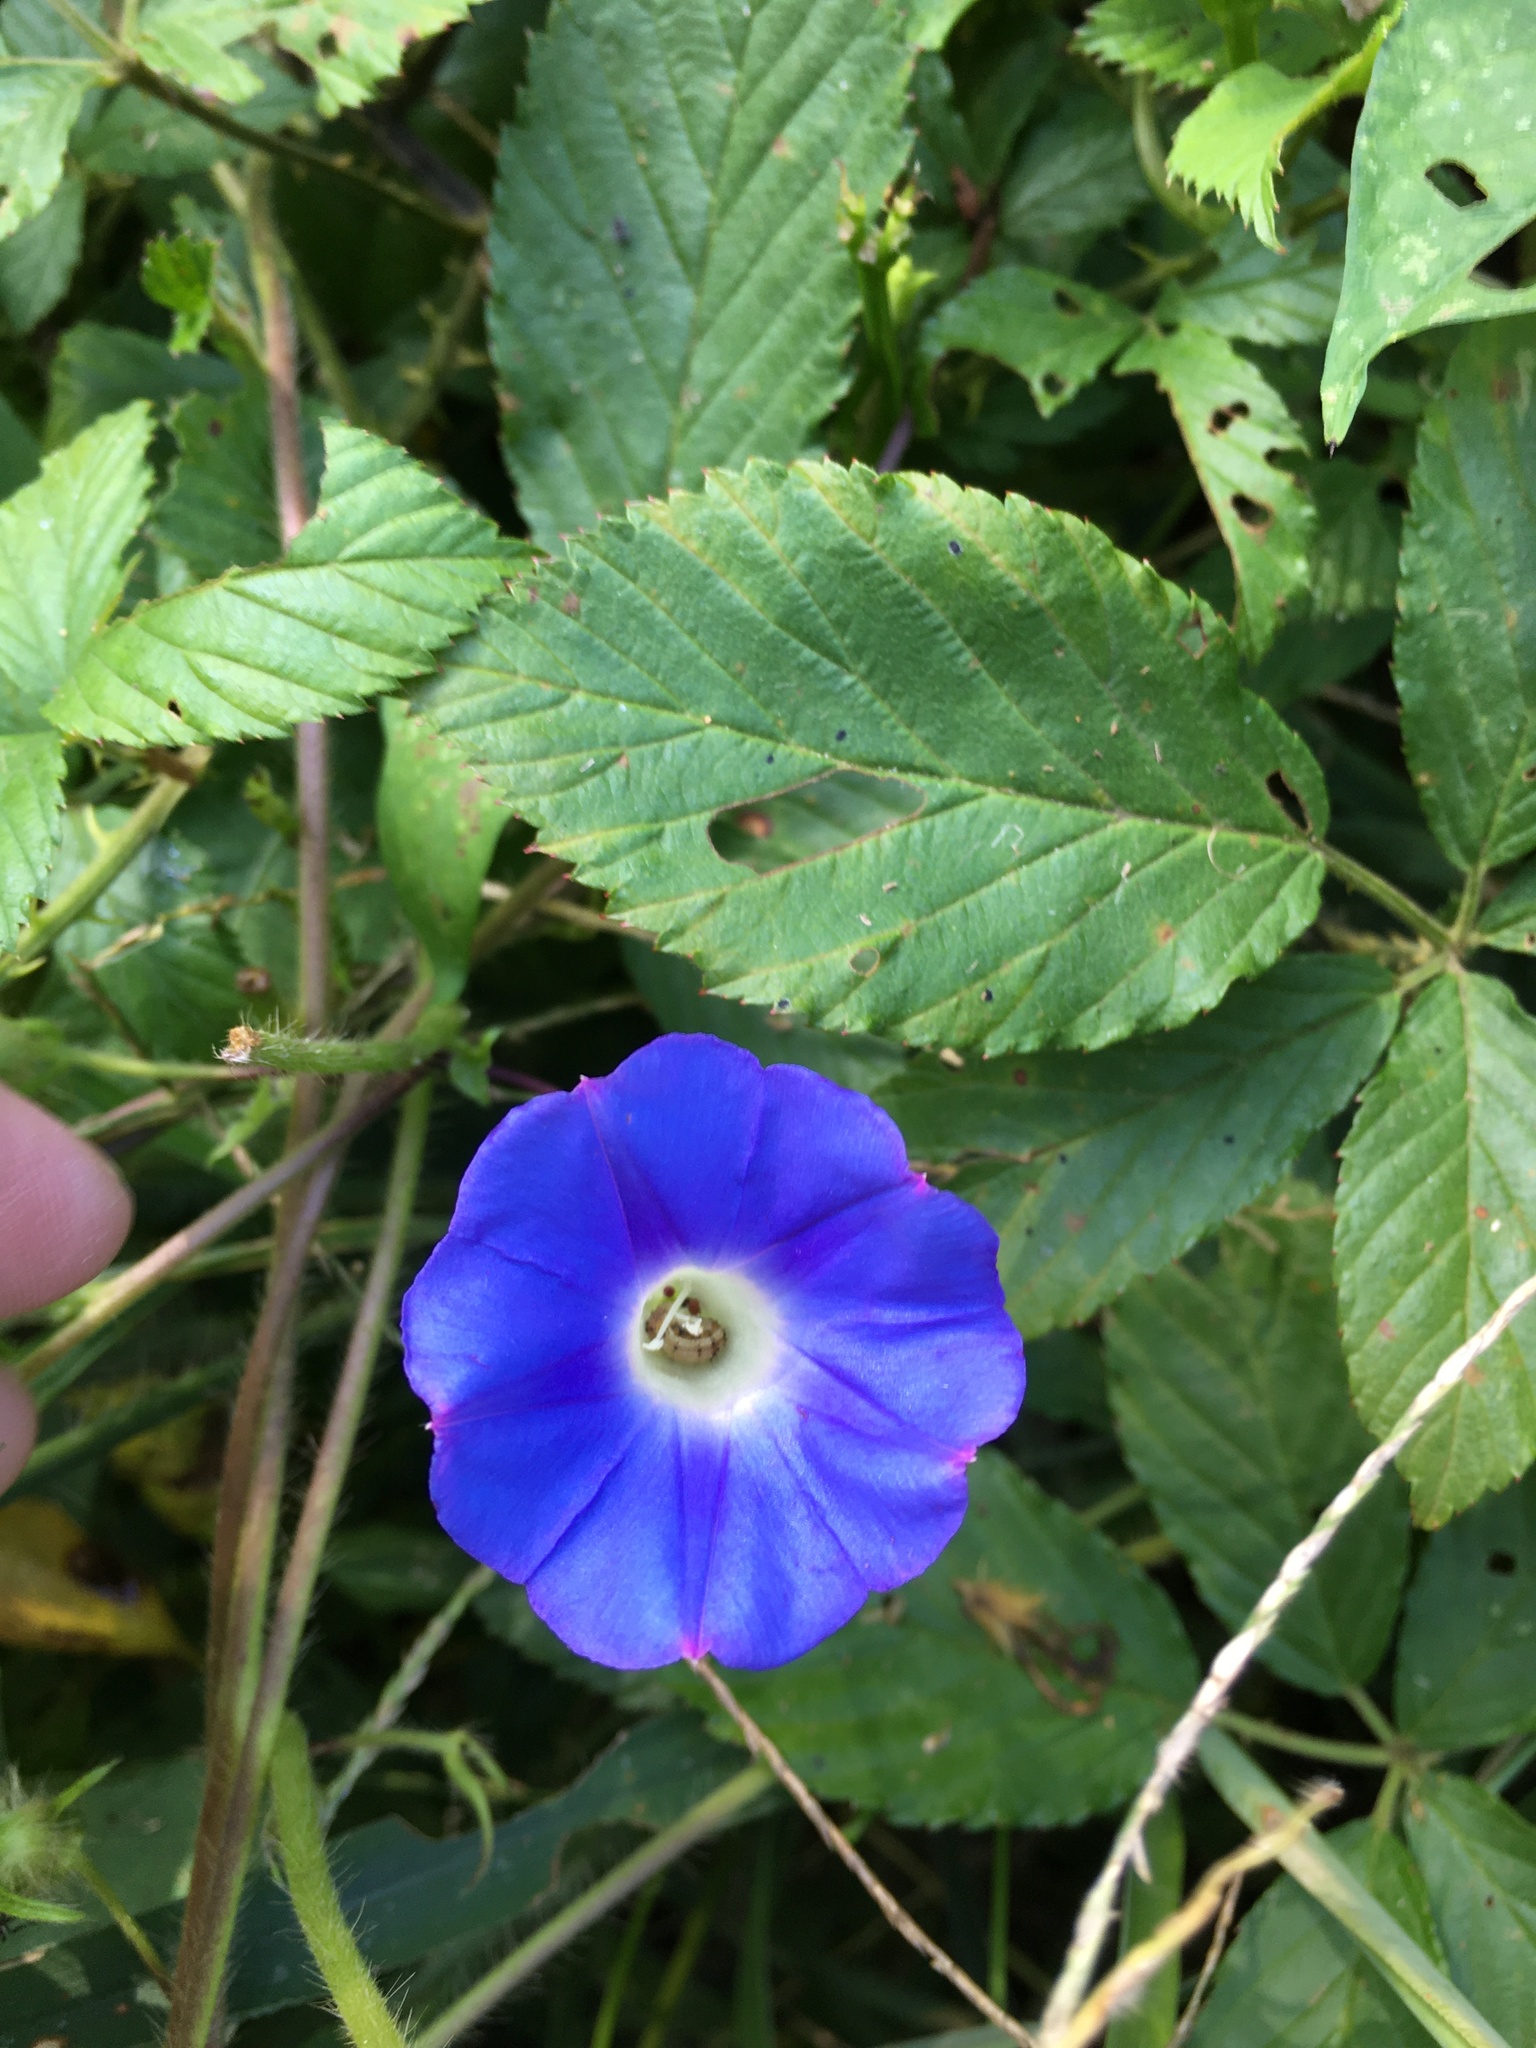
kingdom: Plantae
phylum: Tracheophyta
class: Magnoliopsida
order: Solanales
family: Convolvulaceae
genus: Ipomoea
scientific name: Ipomoea hederacea
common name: Ivy-leaved morning-glory
